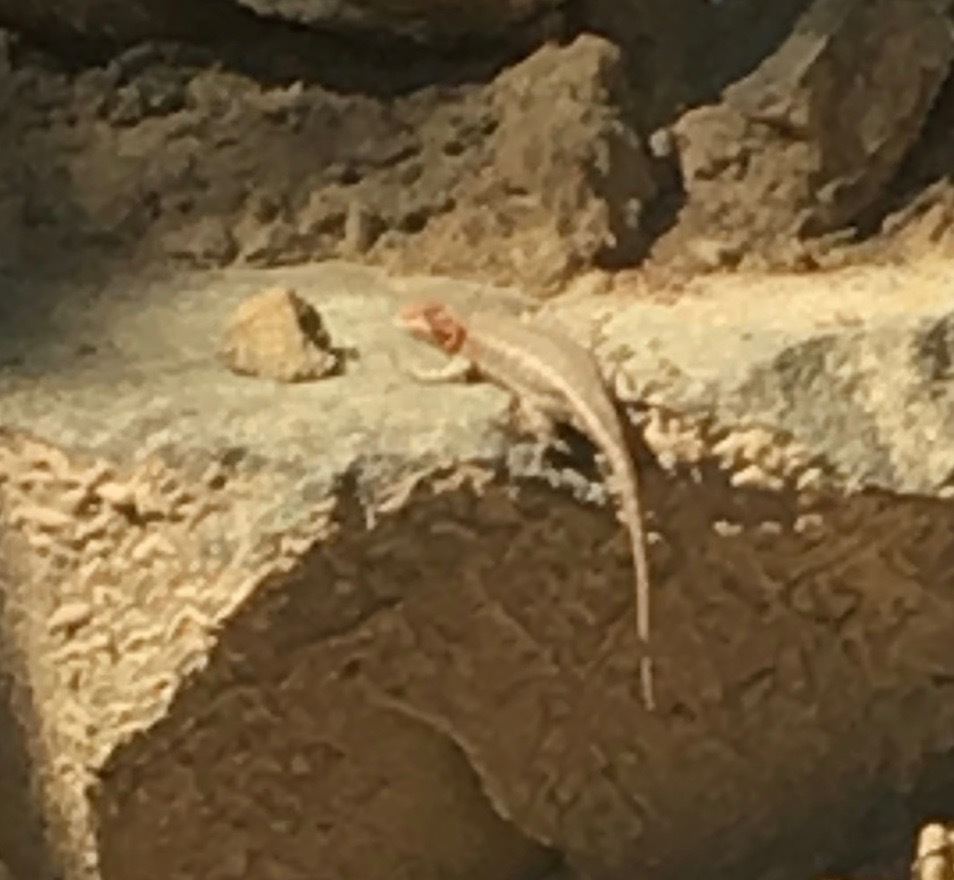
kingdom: Animalia
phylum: Chordata
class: Squamata
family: Phrynosomatidae
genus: Sceloporus
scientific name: Sceloporus graciosus
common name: Sagebrush lizard
